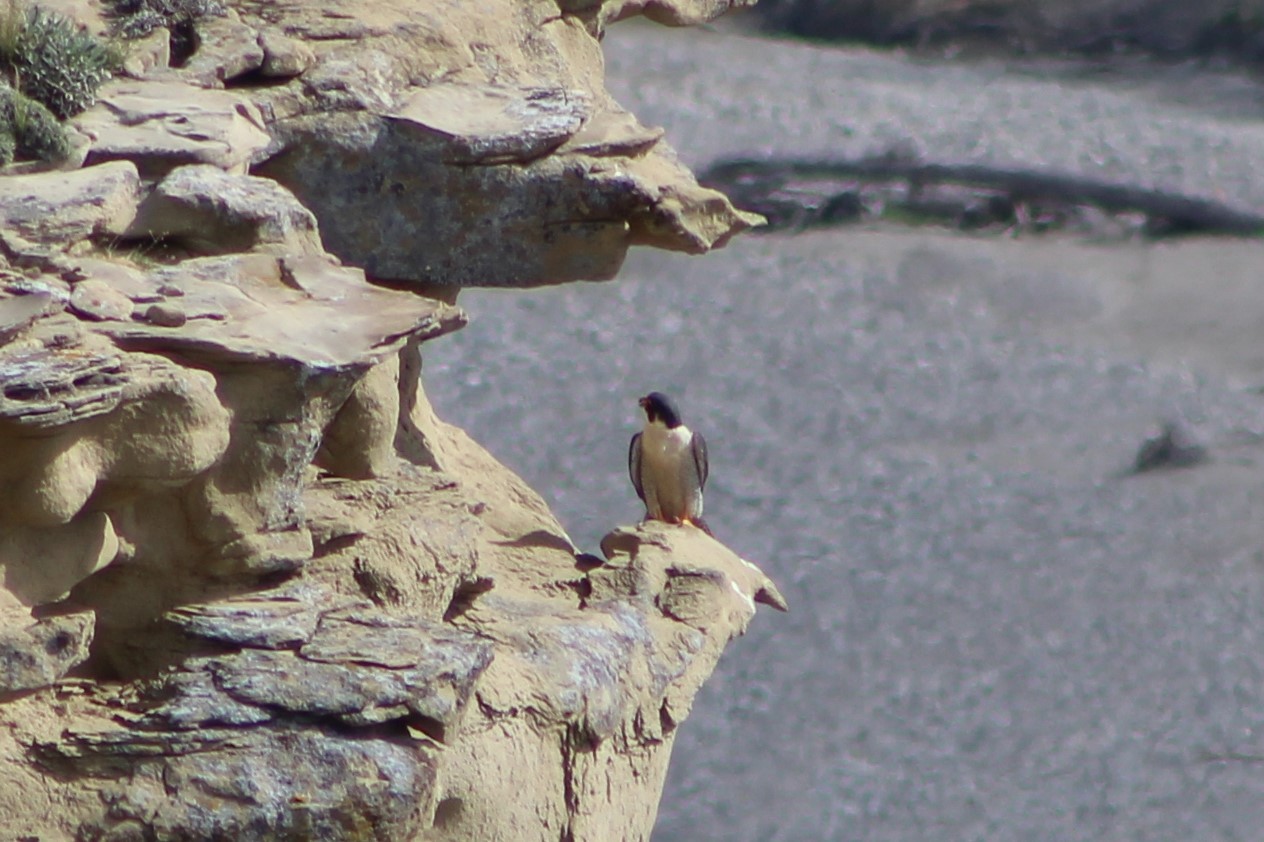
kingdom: Animalia
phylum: Chordata
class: Aves
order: Falconiformes
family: Falconidae
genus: Falco
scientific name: Falco peregrinus
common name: Peregrine falcon
